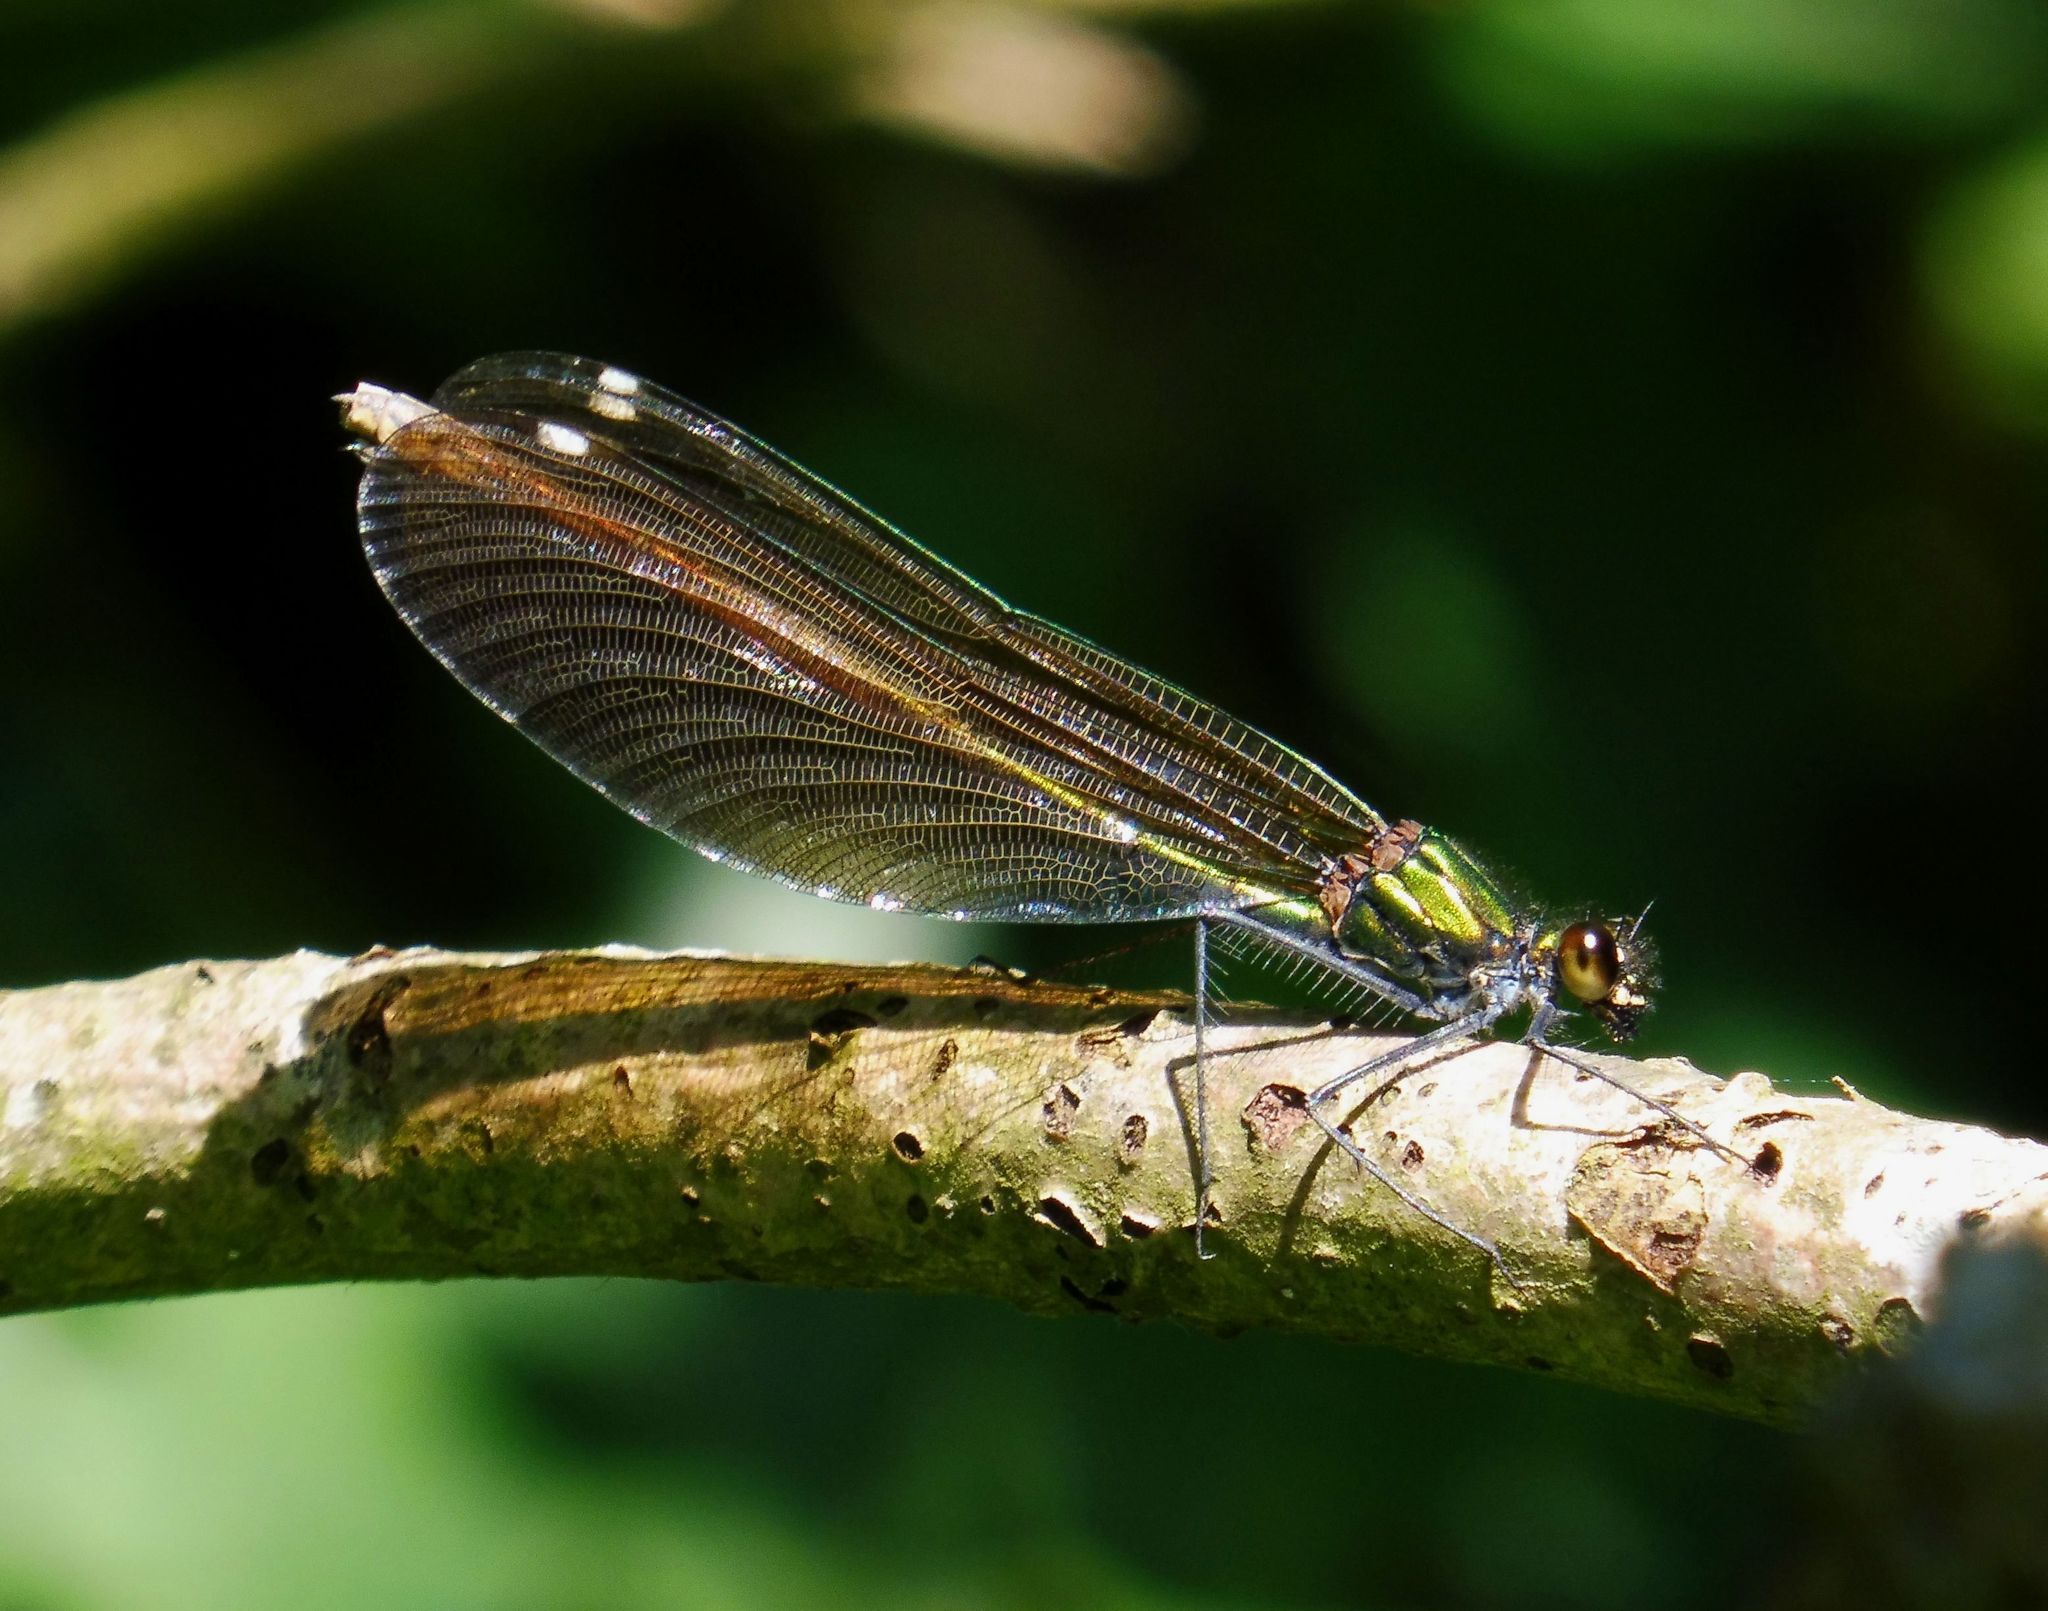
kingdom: Animalia
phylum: Arthropoda
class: Insecta
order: Odonata
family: Calopterygidae
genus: Calopteryx
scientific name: Calopteryx virgo
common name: Beautiful demoiselle
